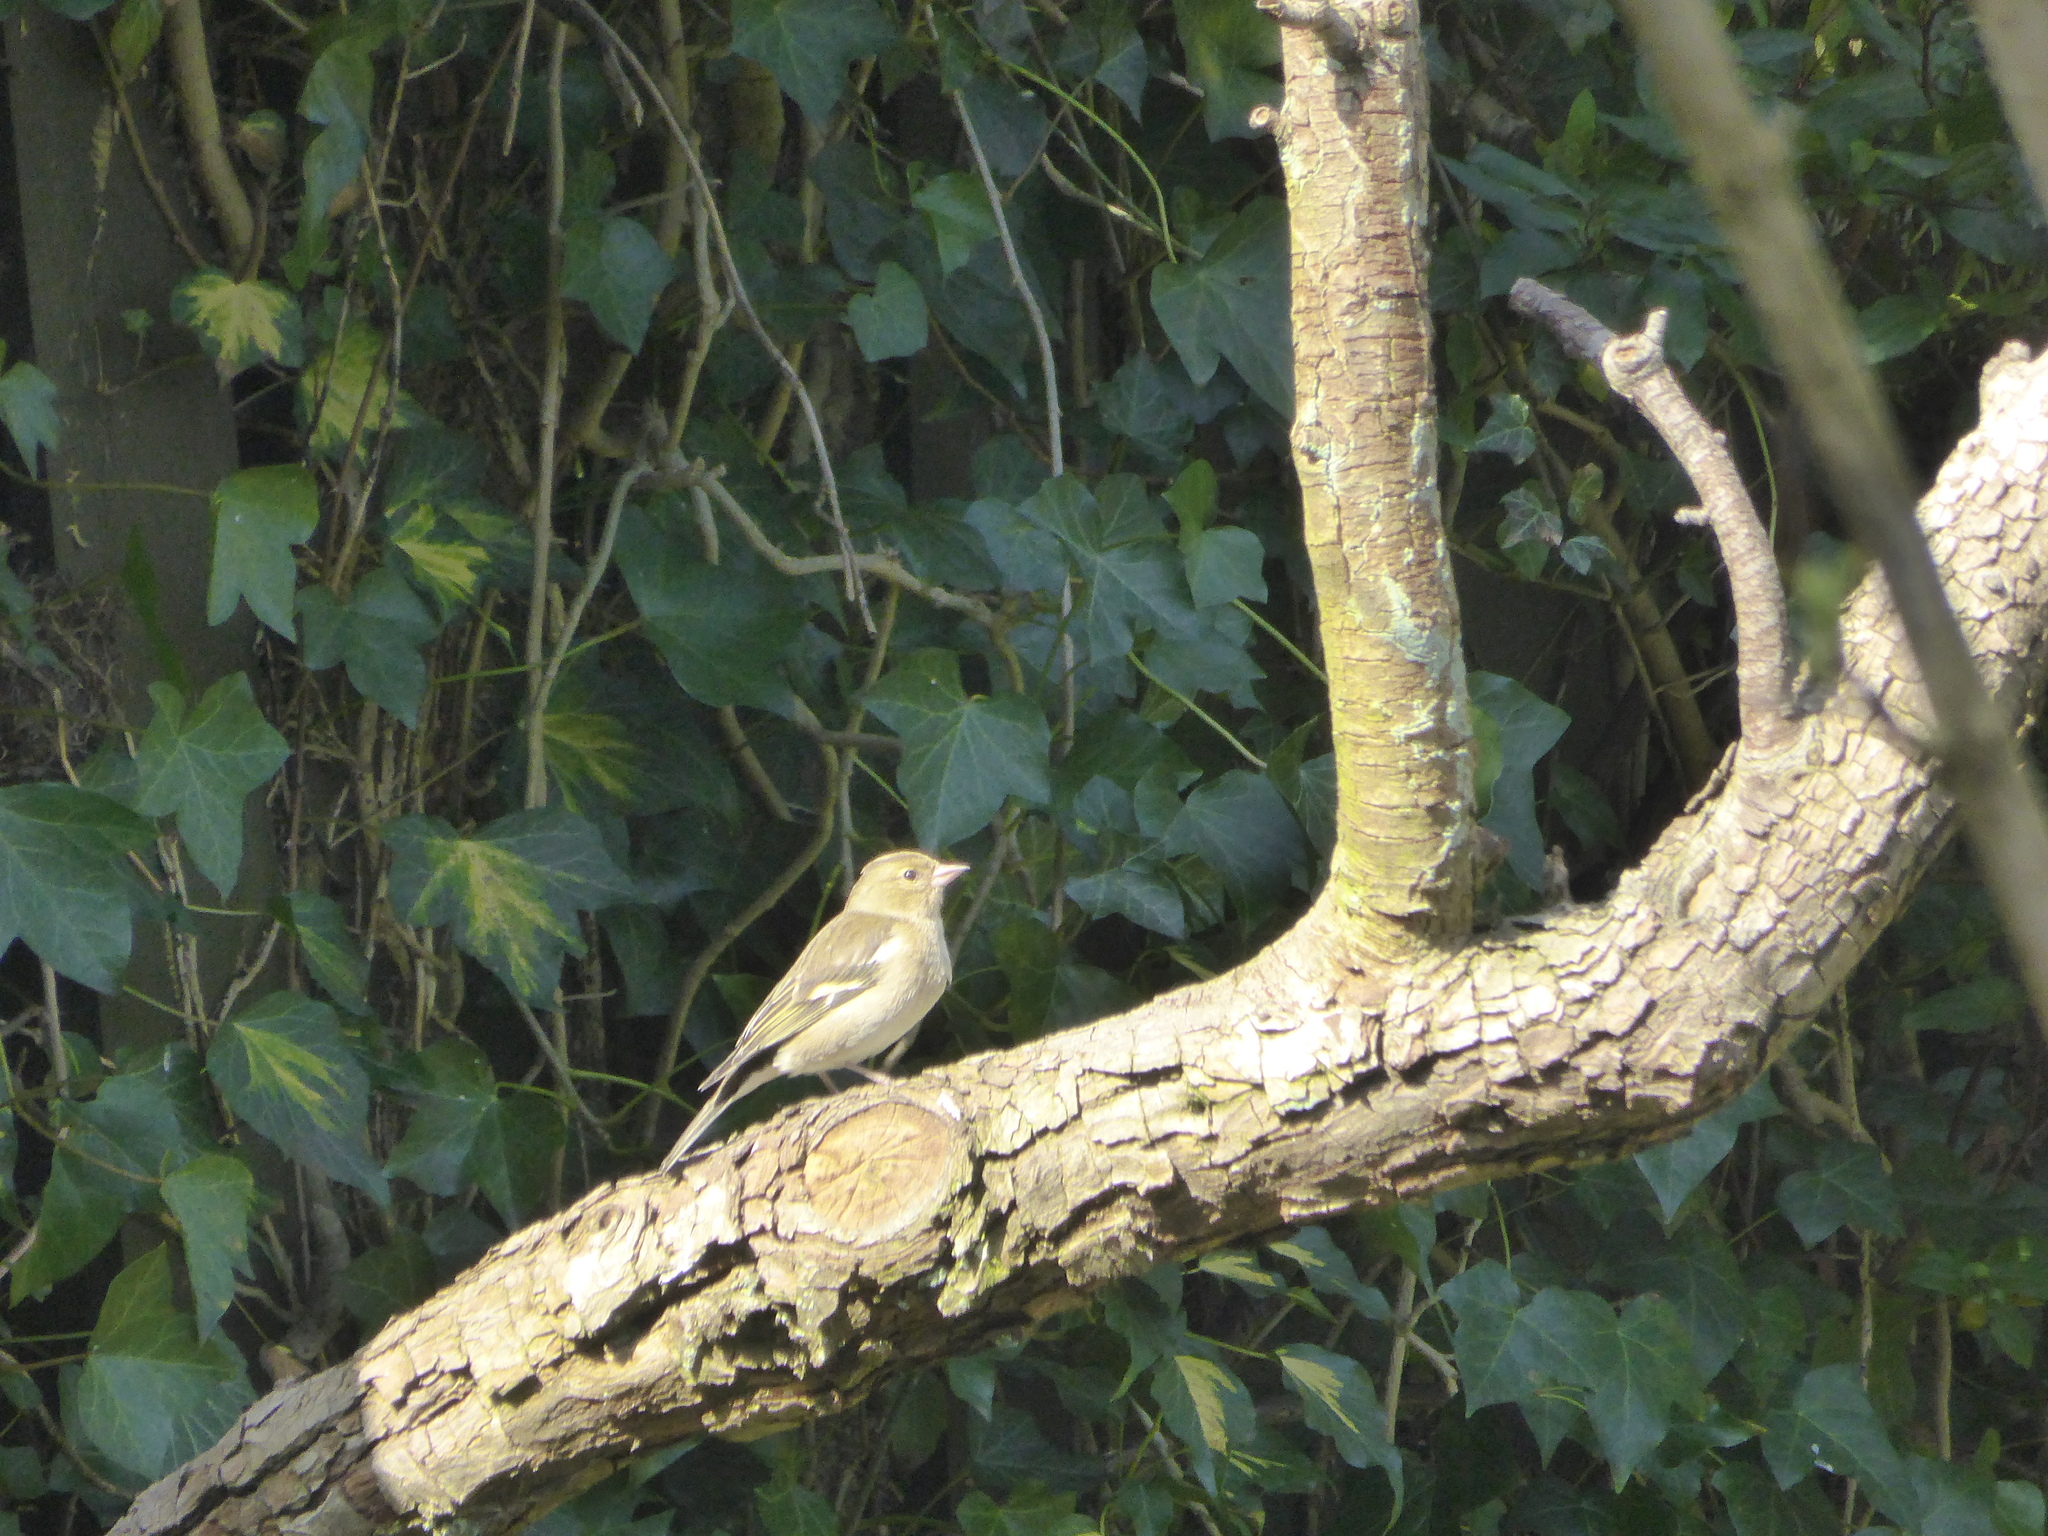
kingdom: Animalia
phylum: Chordata
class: Aves
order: Passeriformes
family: Fringillidae
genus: Fringilla
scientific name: Fringilla coelebs
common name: Common chaffinch
